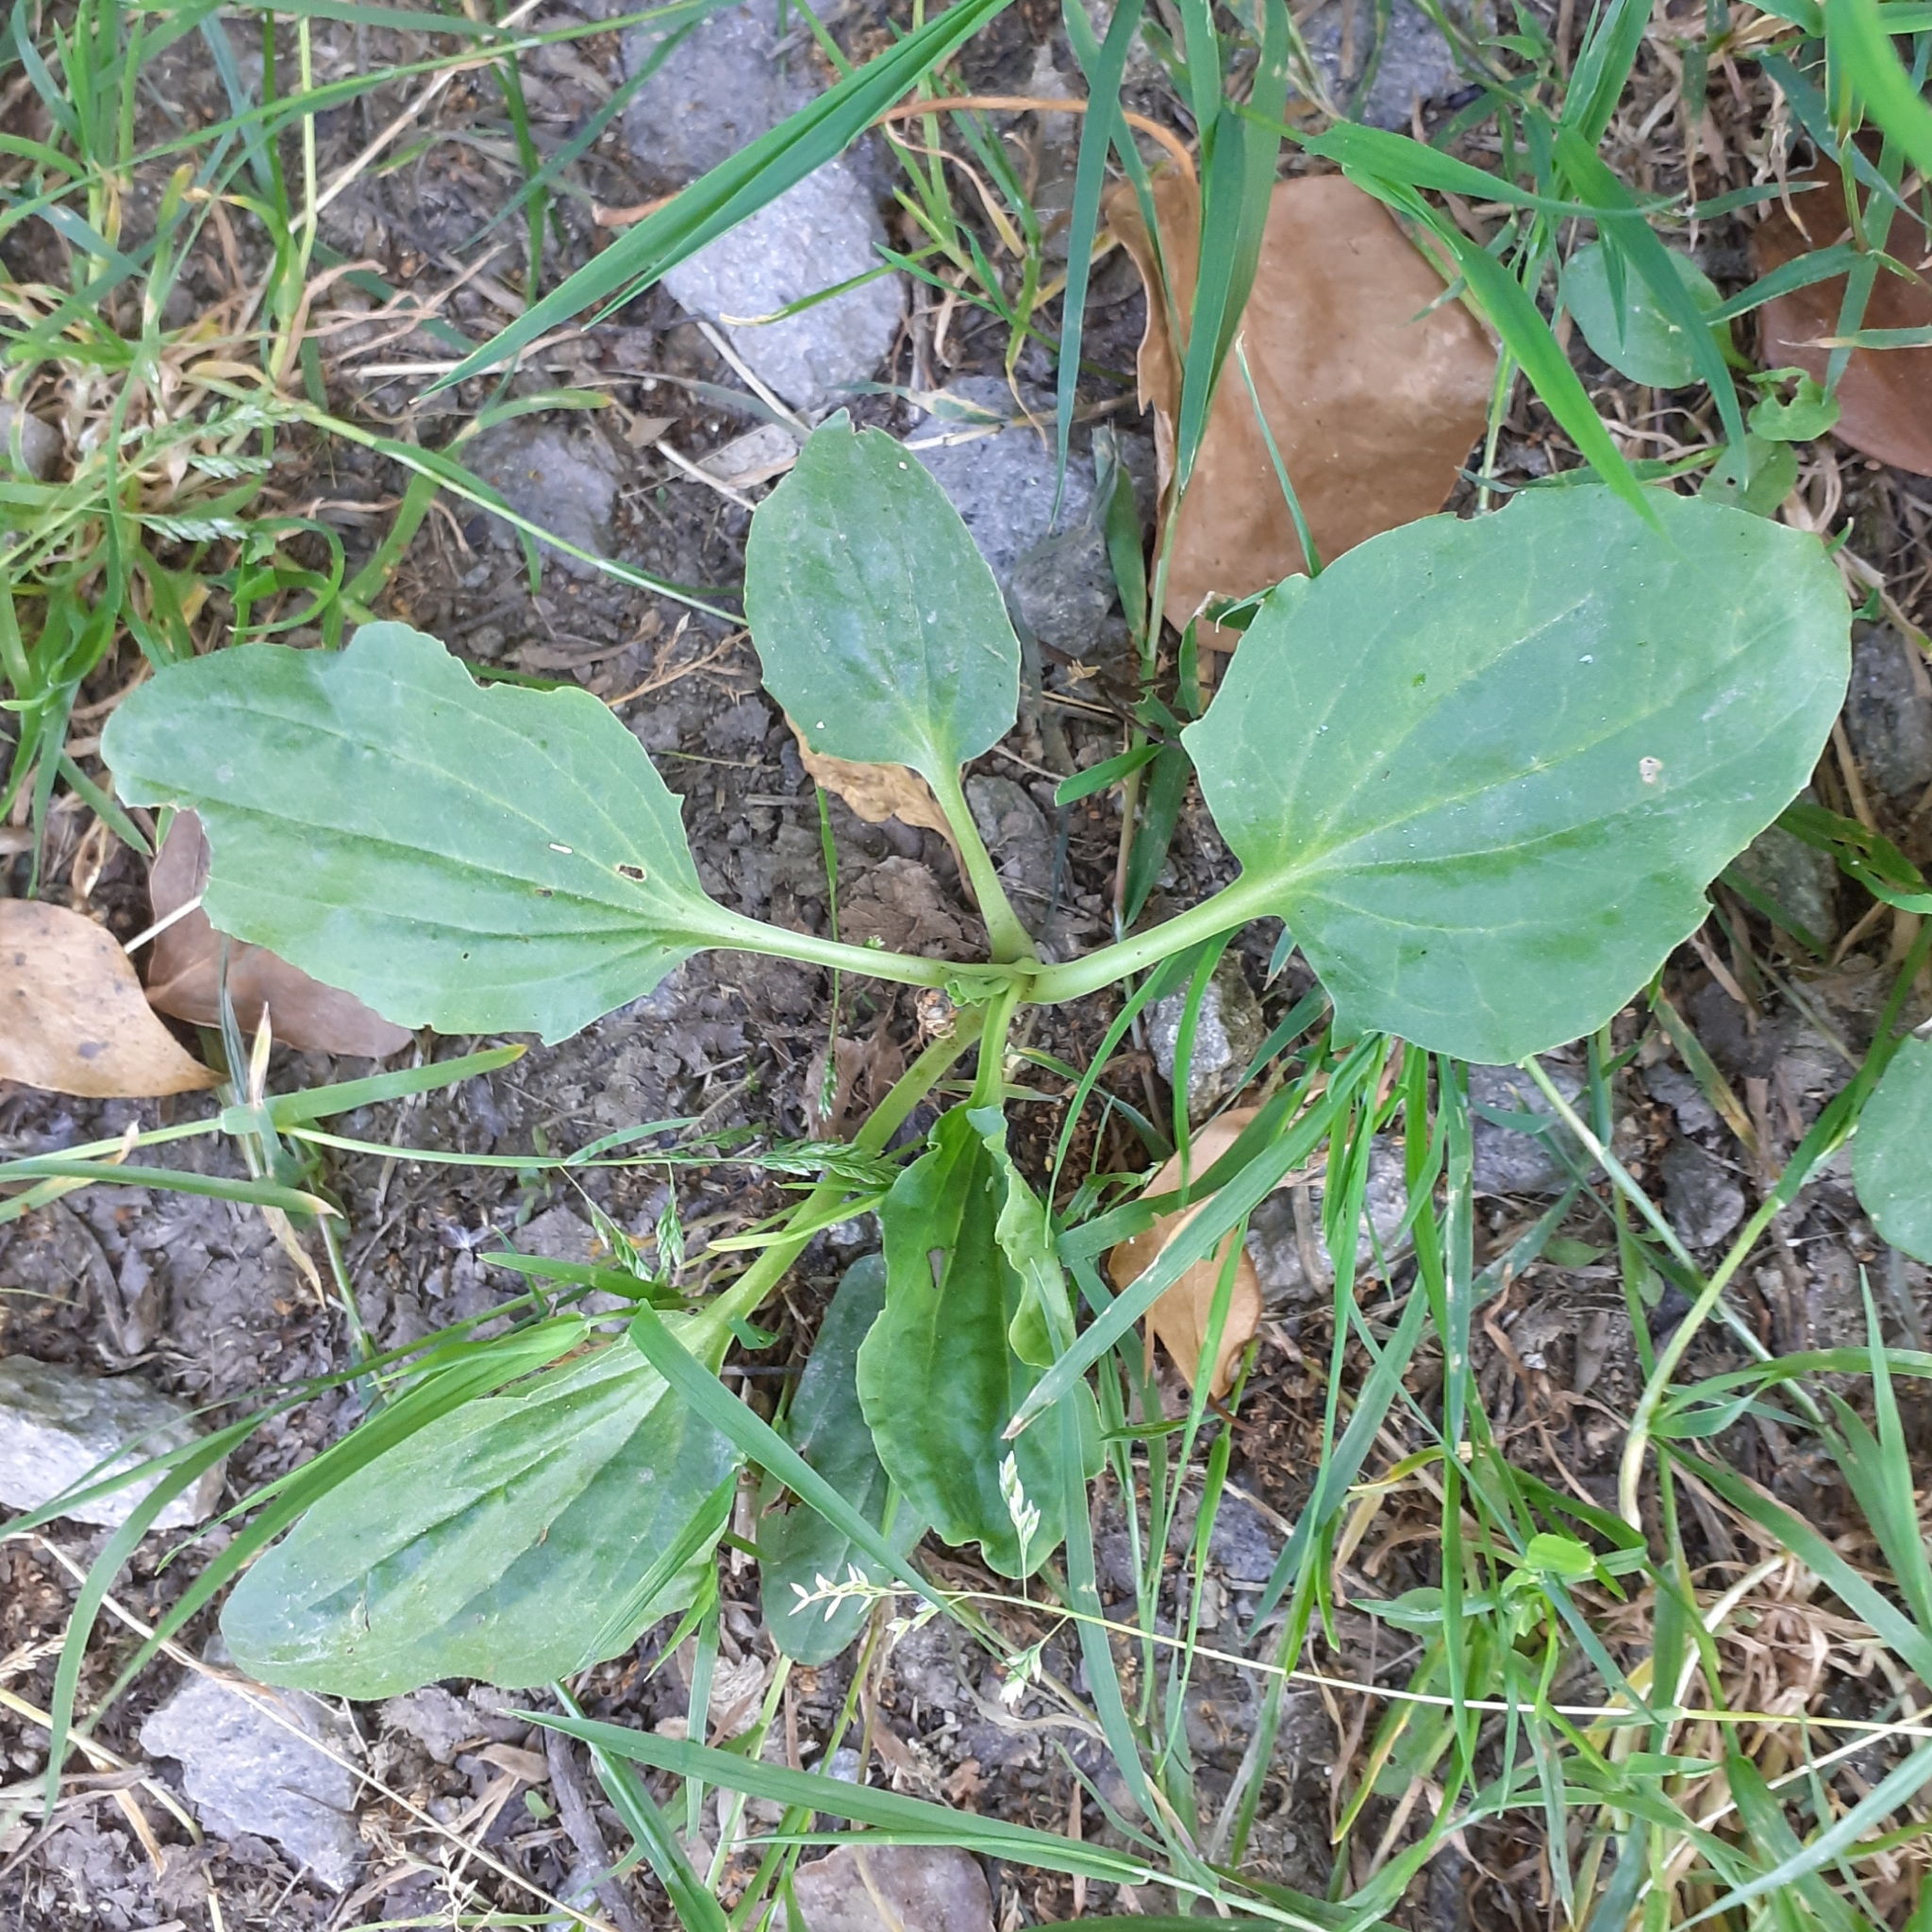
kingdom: Plantae
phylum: Tracheophyta
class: Magnoliopsida
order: Lamiales
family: Plantaginaceae
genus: Plantago
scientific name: Plantago major
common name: Common plantain
